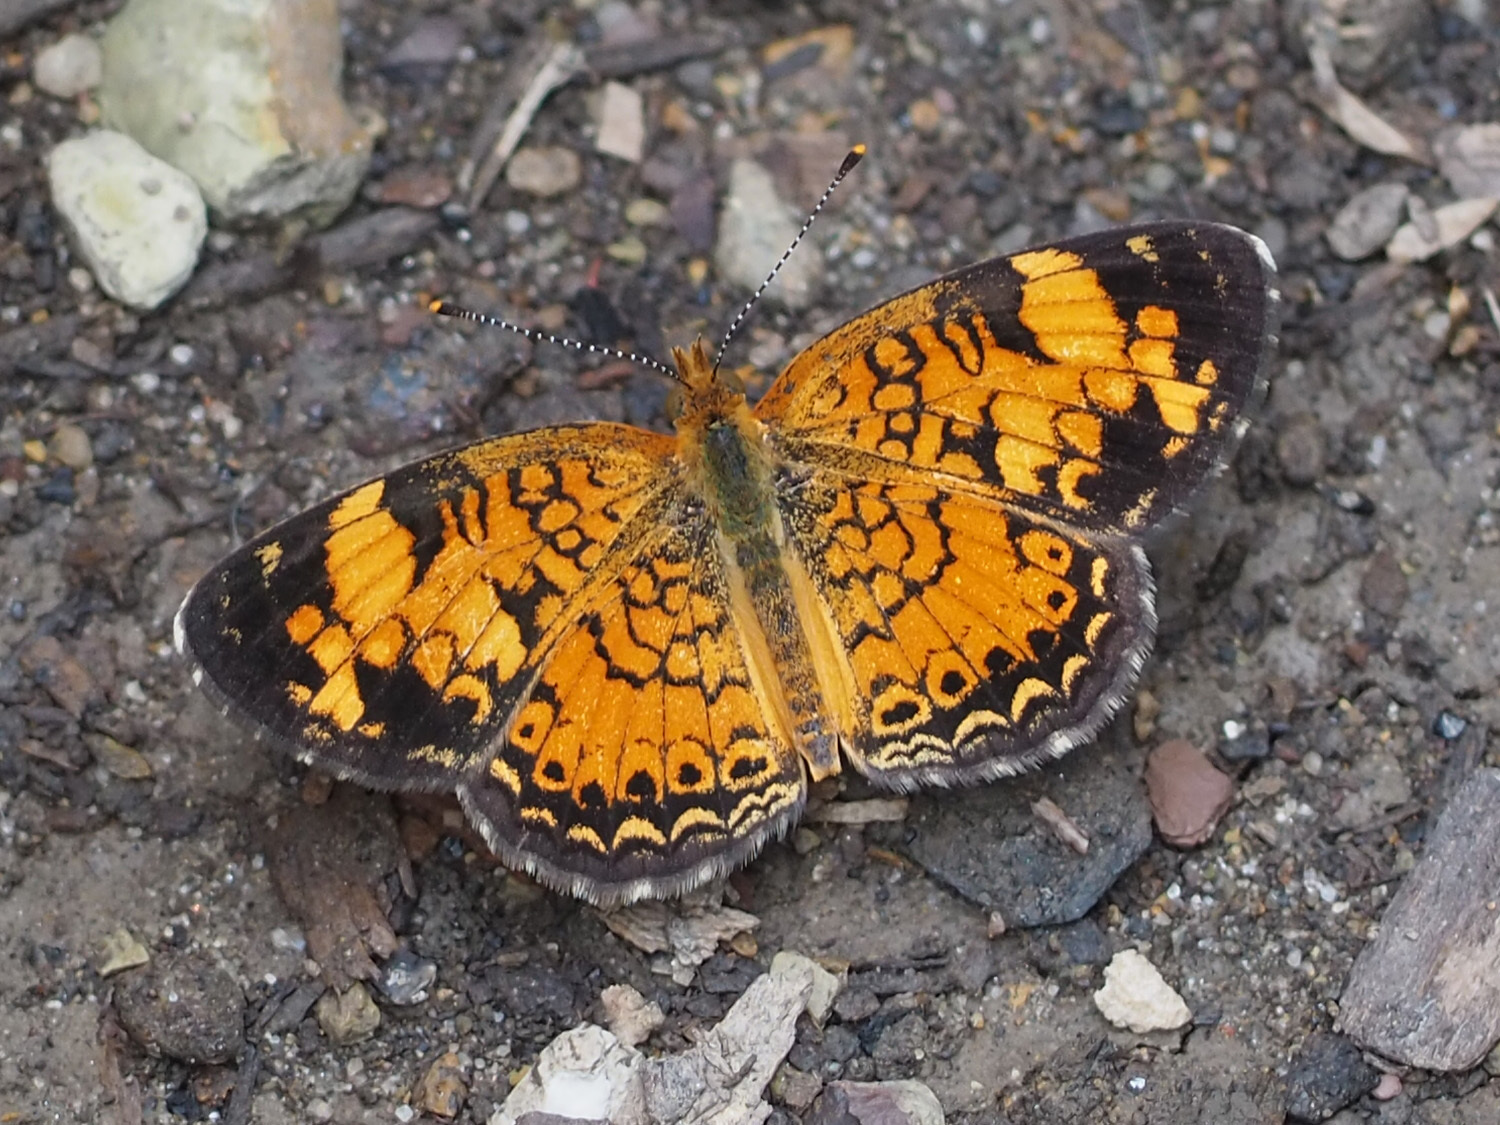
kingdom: Animalia
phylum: Arthropoda
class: Insecta
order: Lepidoptera
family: Nymphalidae
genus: Phyciodes
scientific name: Phyciodes tharos
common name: Pearl crescent
